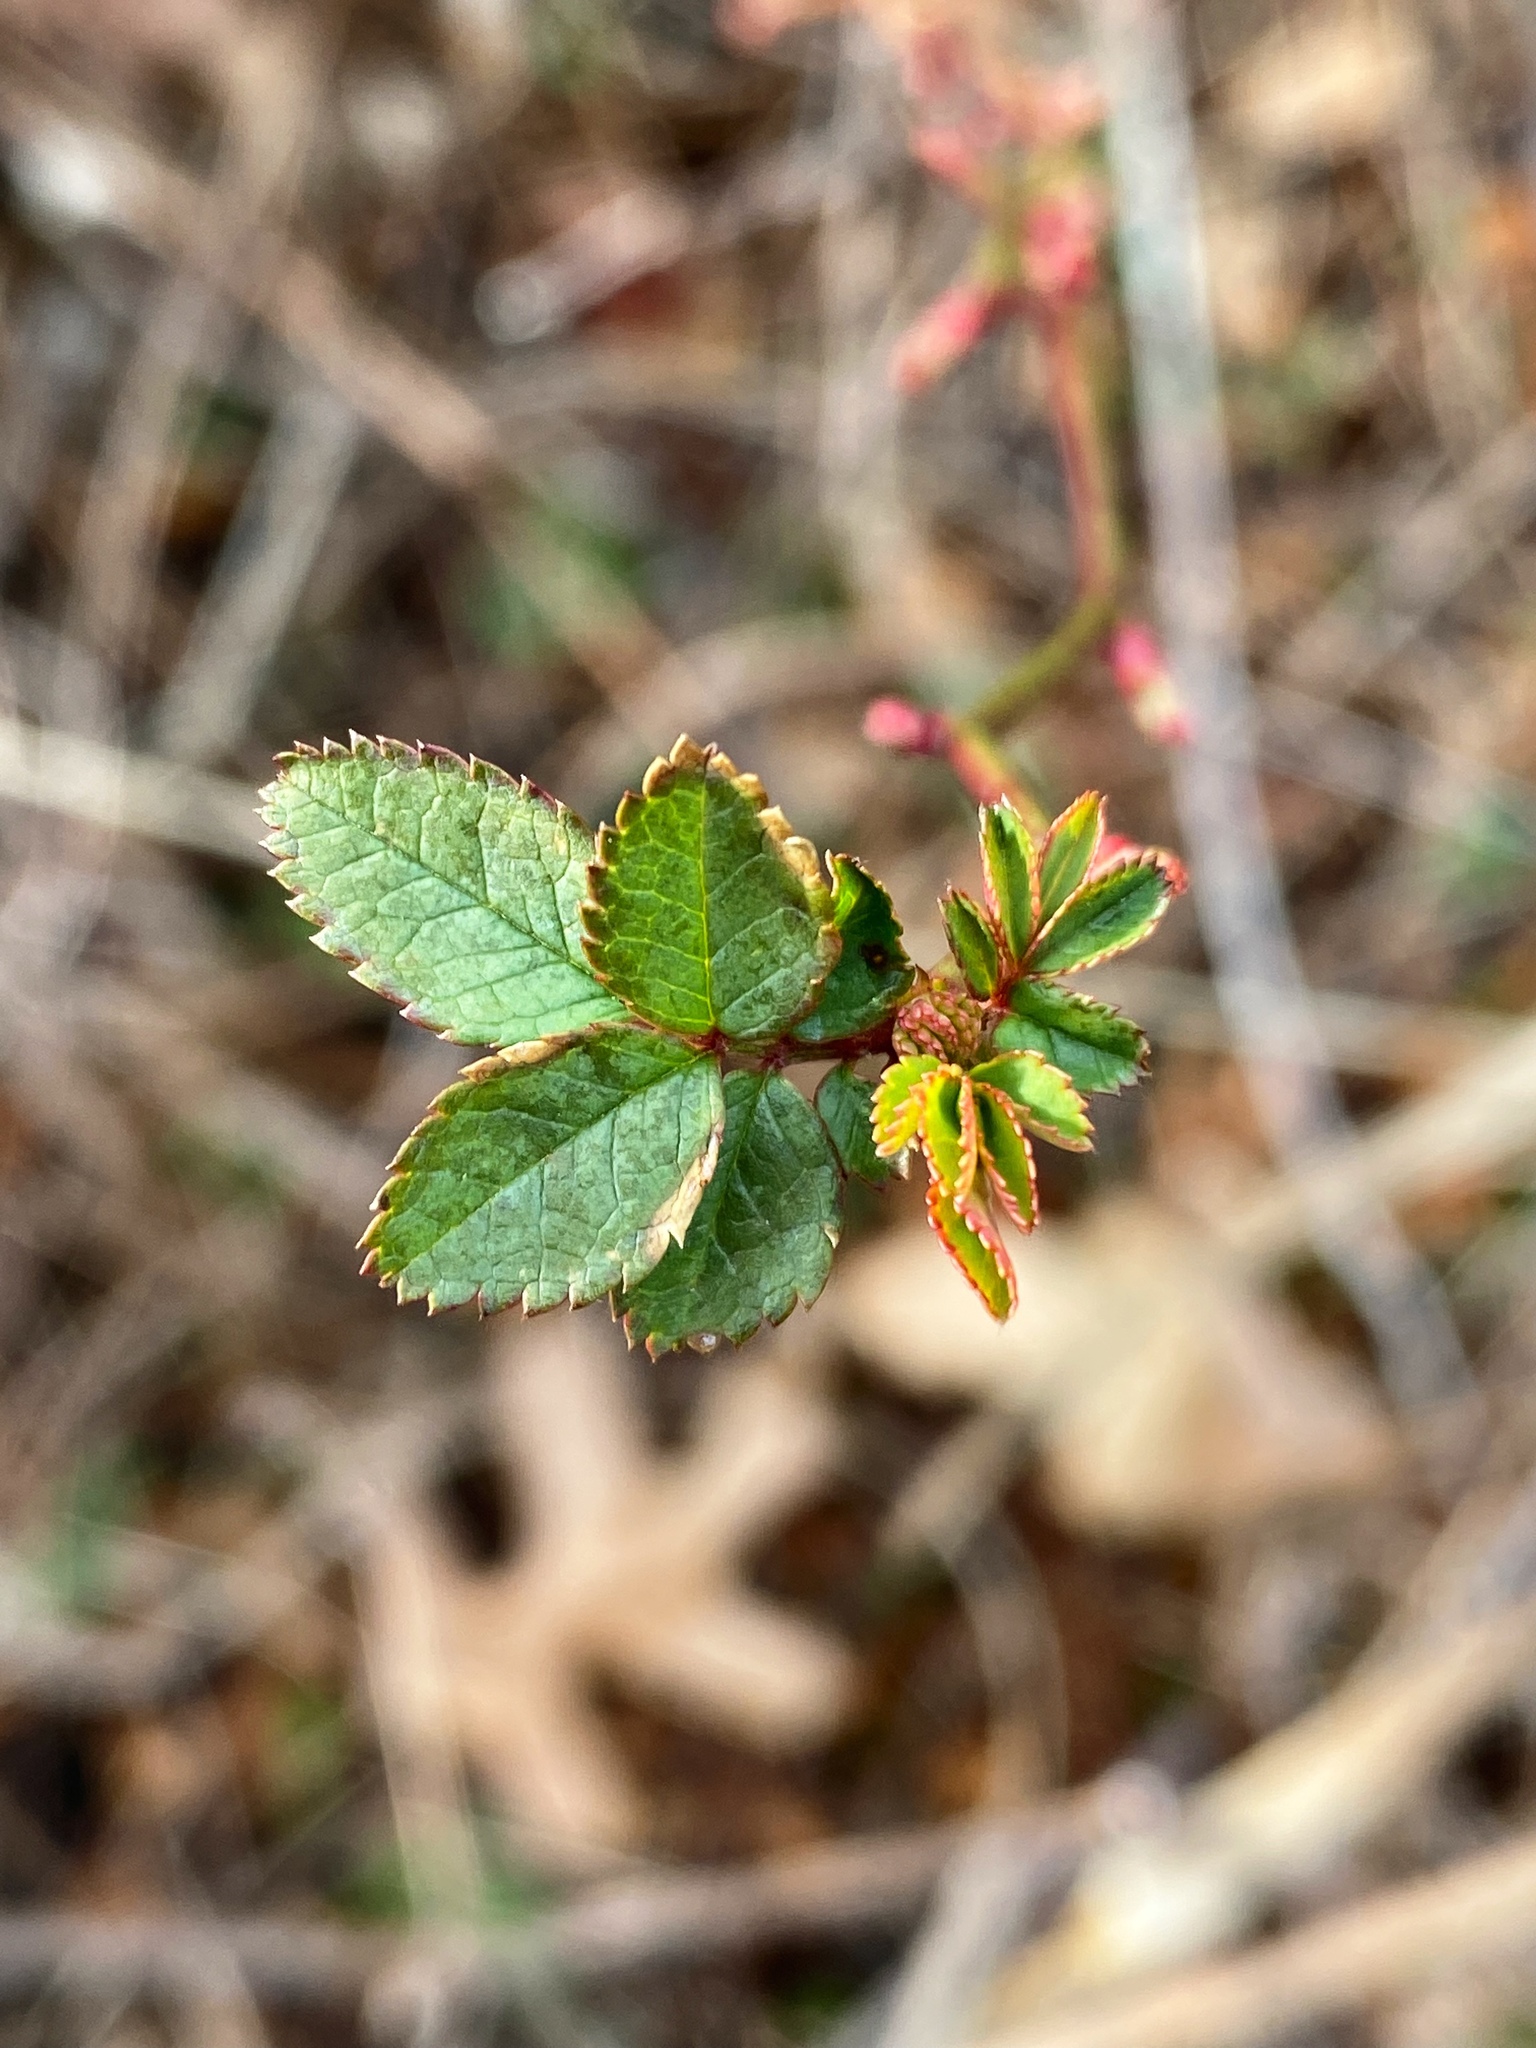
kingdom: Plantae
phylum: Tracheophyta
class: Magnoliopsida
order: Rosales
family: Rosaceae
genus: Rosa
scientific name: Rosa multiflora
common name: Multiflora rose
